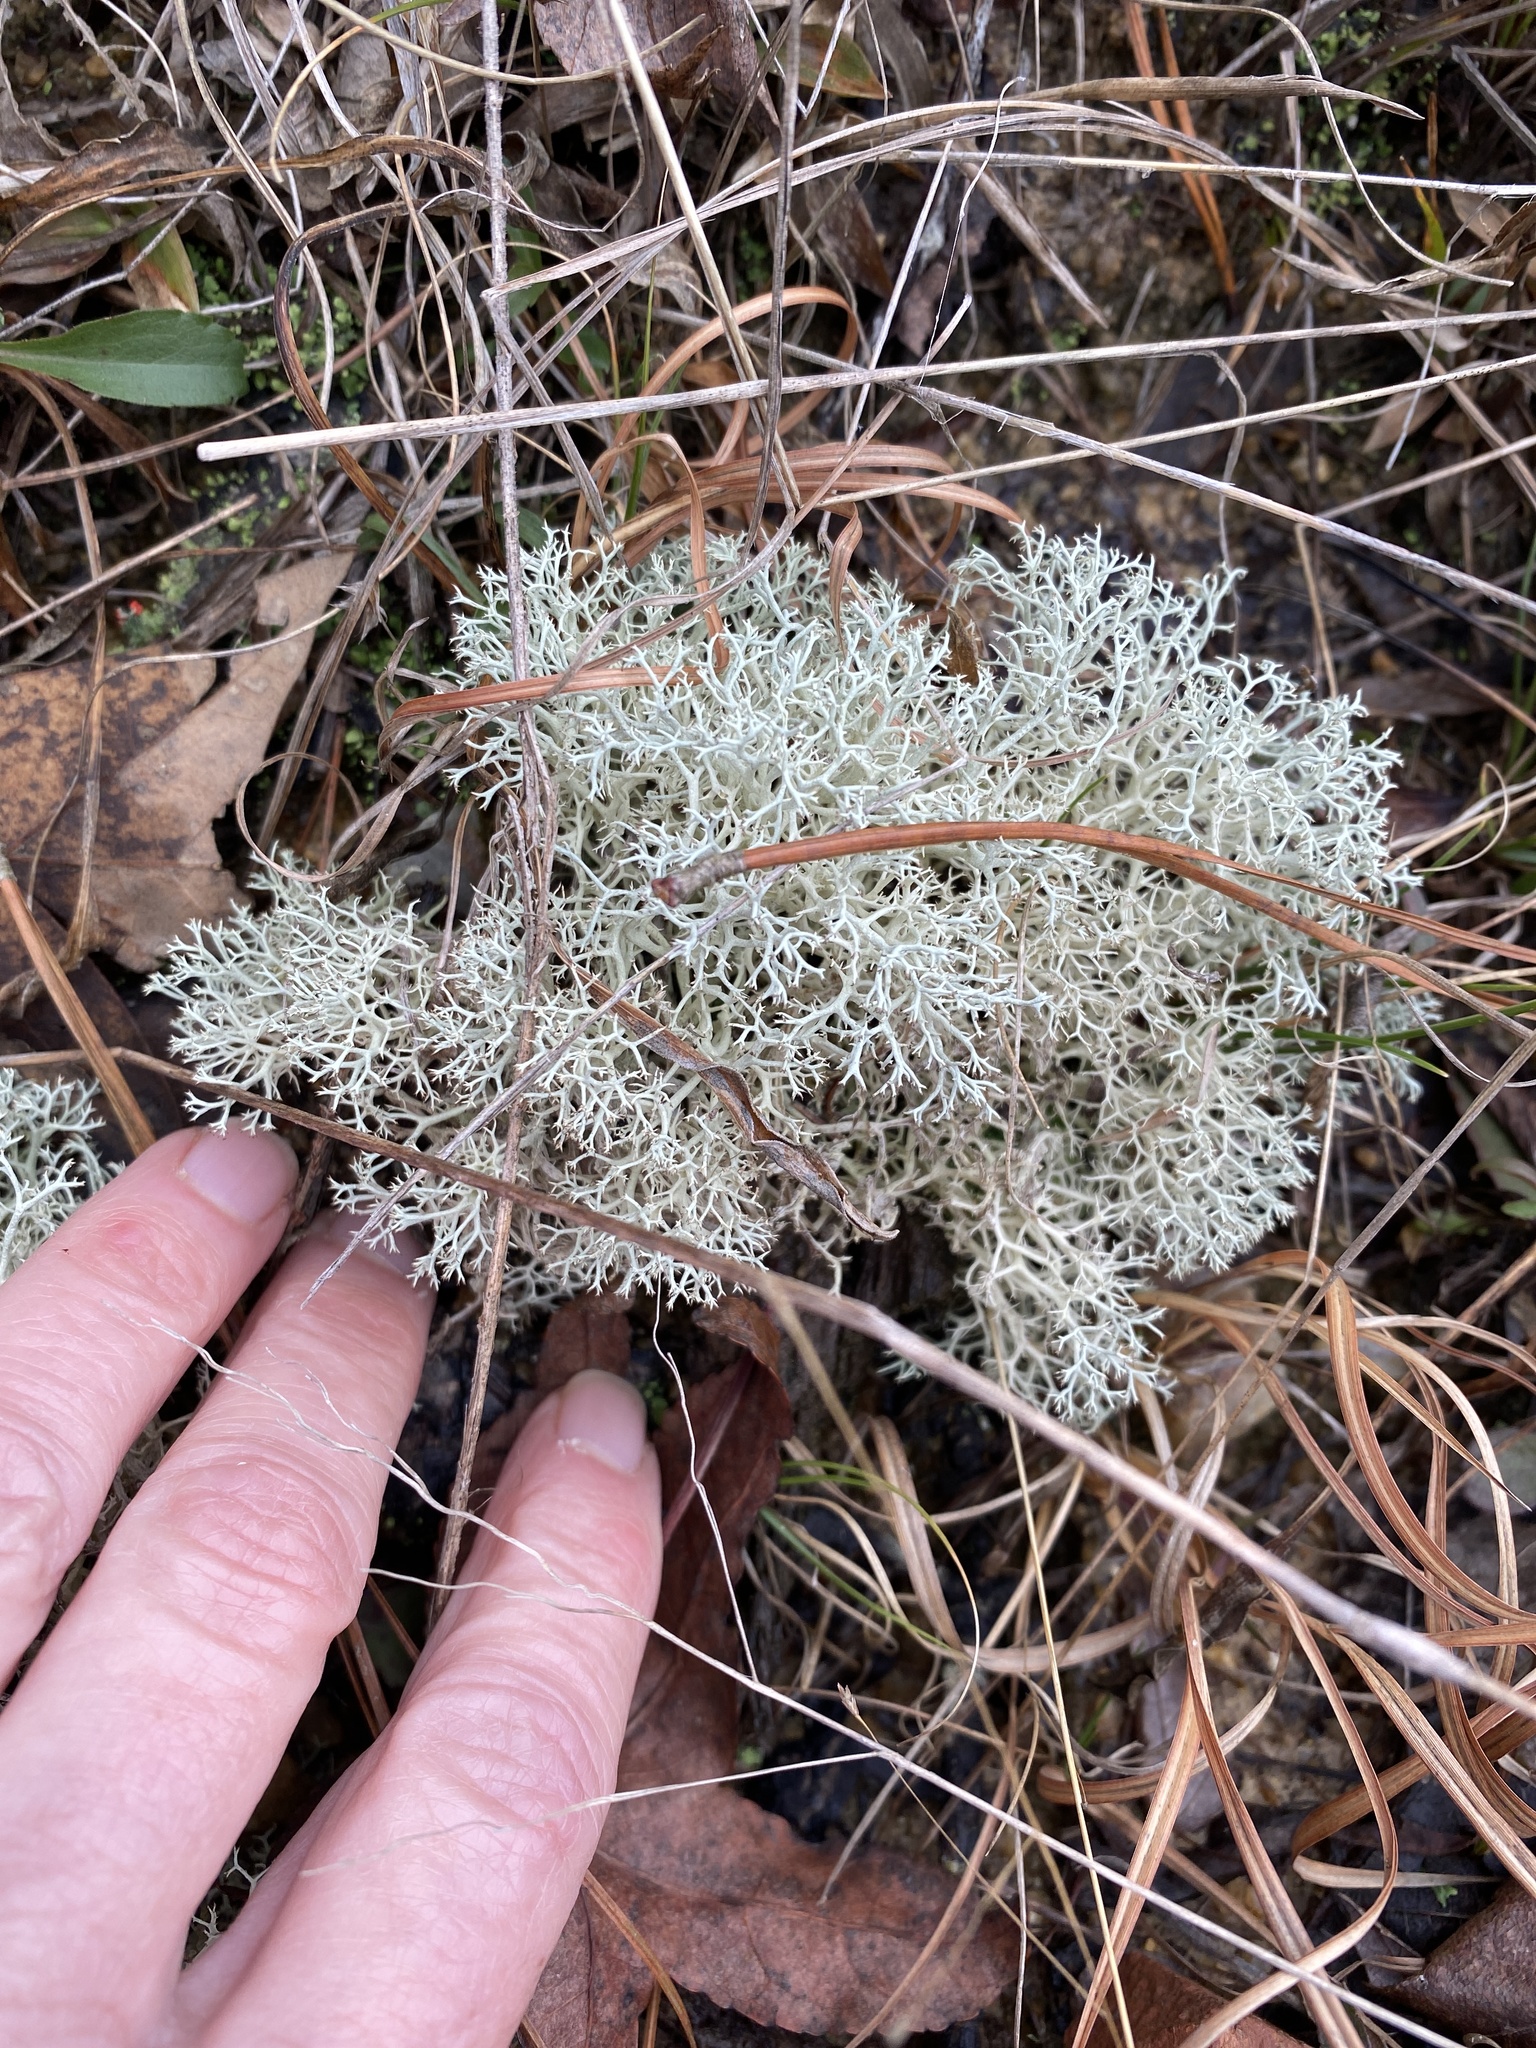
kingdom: Fungi
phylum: Ascomycota
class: Lecanoromycetes
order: Lecanorales
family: Cladoniaceae
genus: Cladonia
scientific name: Cladonia subtenuis
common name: Dixie reindeer lichen
